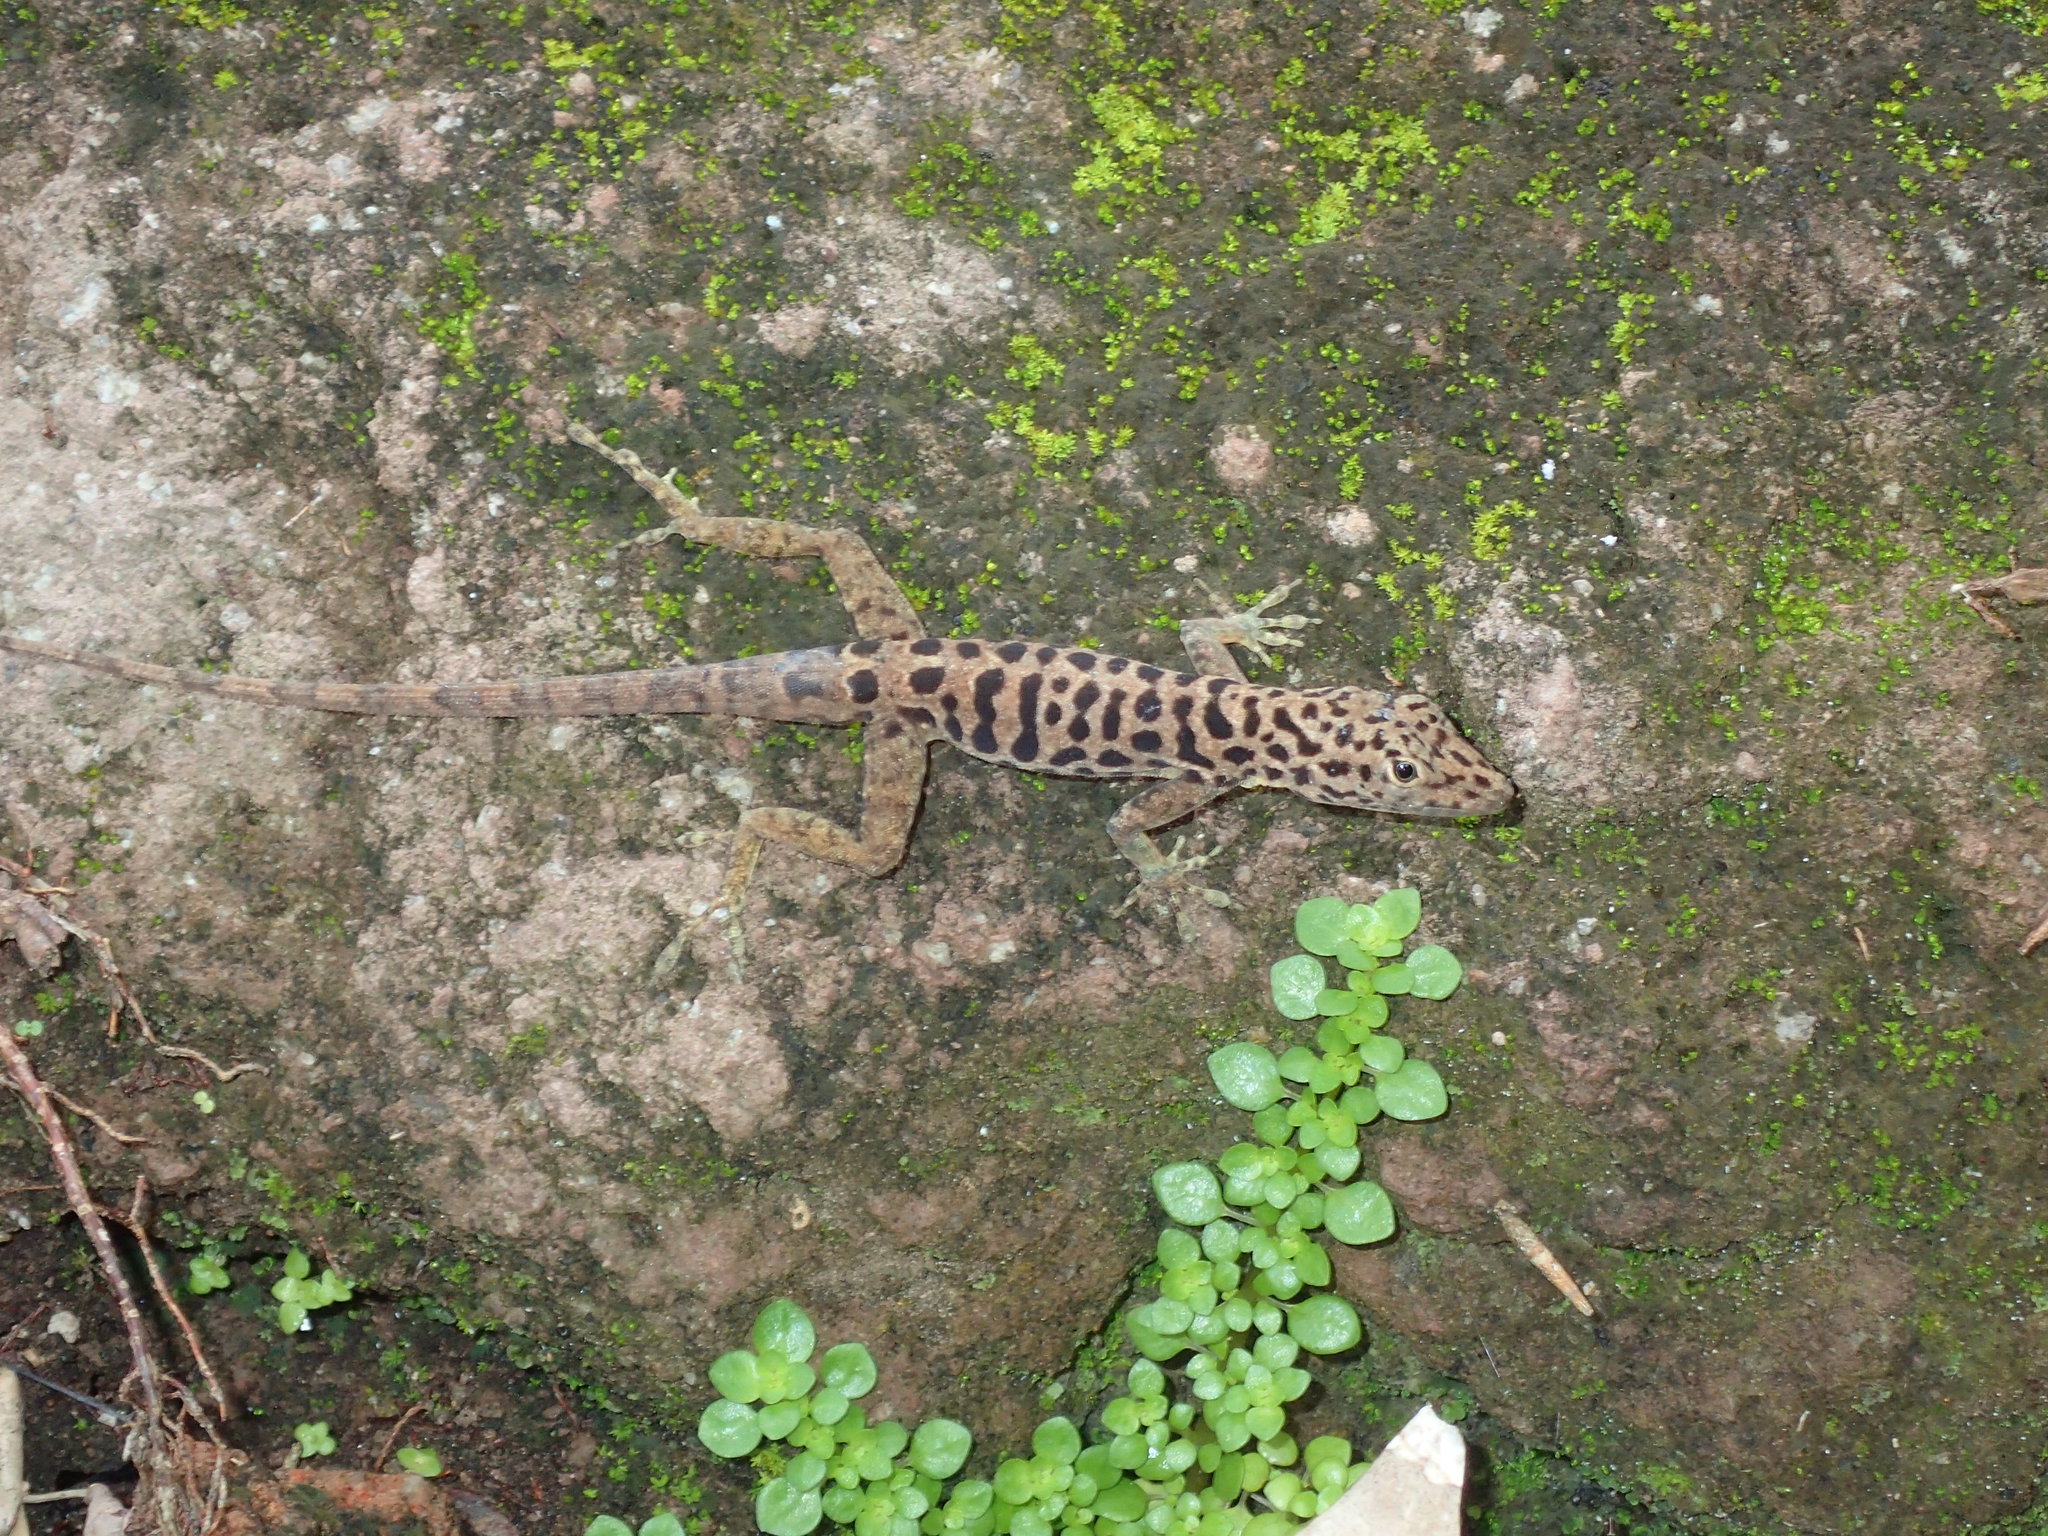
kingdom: Animalia
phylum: Chordata
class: Squamata
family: Dactyloidae
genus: Anolis
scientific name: Anolis sabanus
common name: Saba anole
